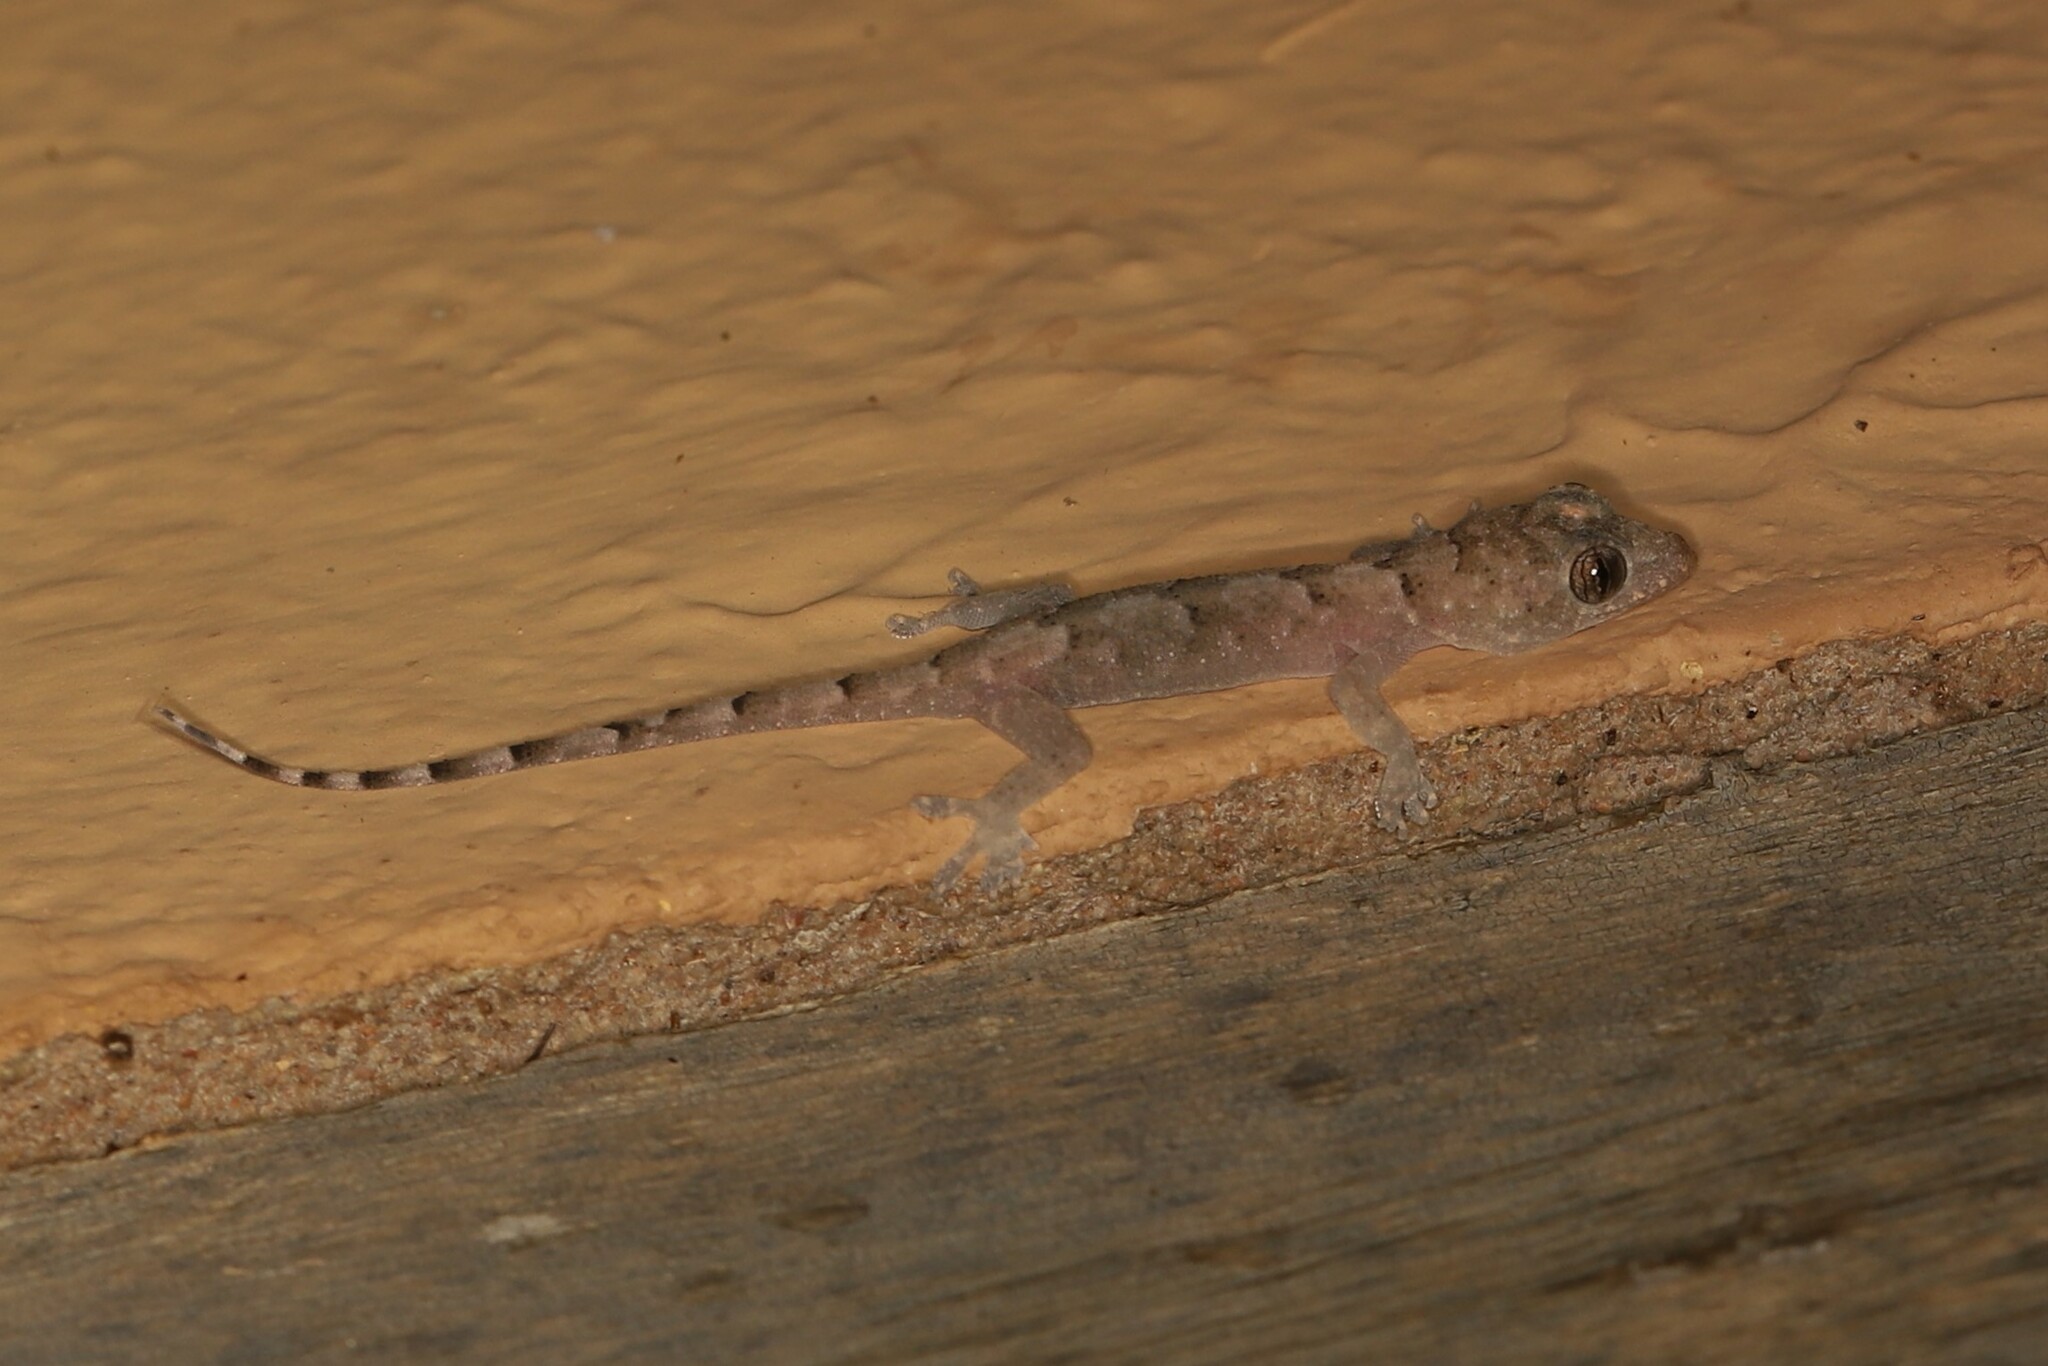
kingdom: Animalia
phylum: Chordata
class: Squamata
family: Gekkonidae
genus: Hemidactylus
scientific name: Hemidactylus mabouia
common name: House gecko
